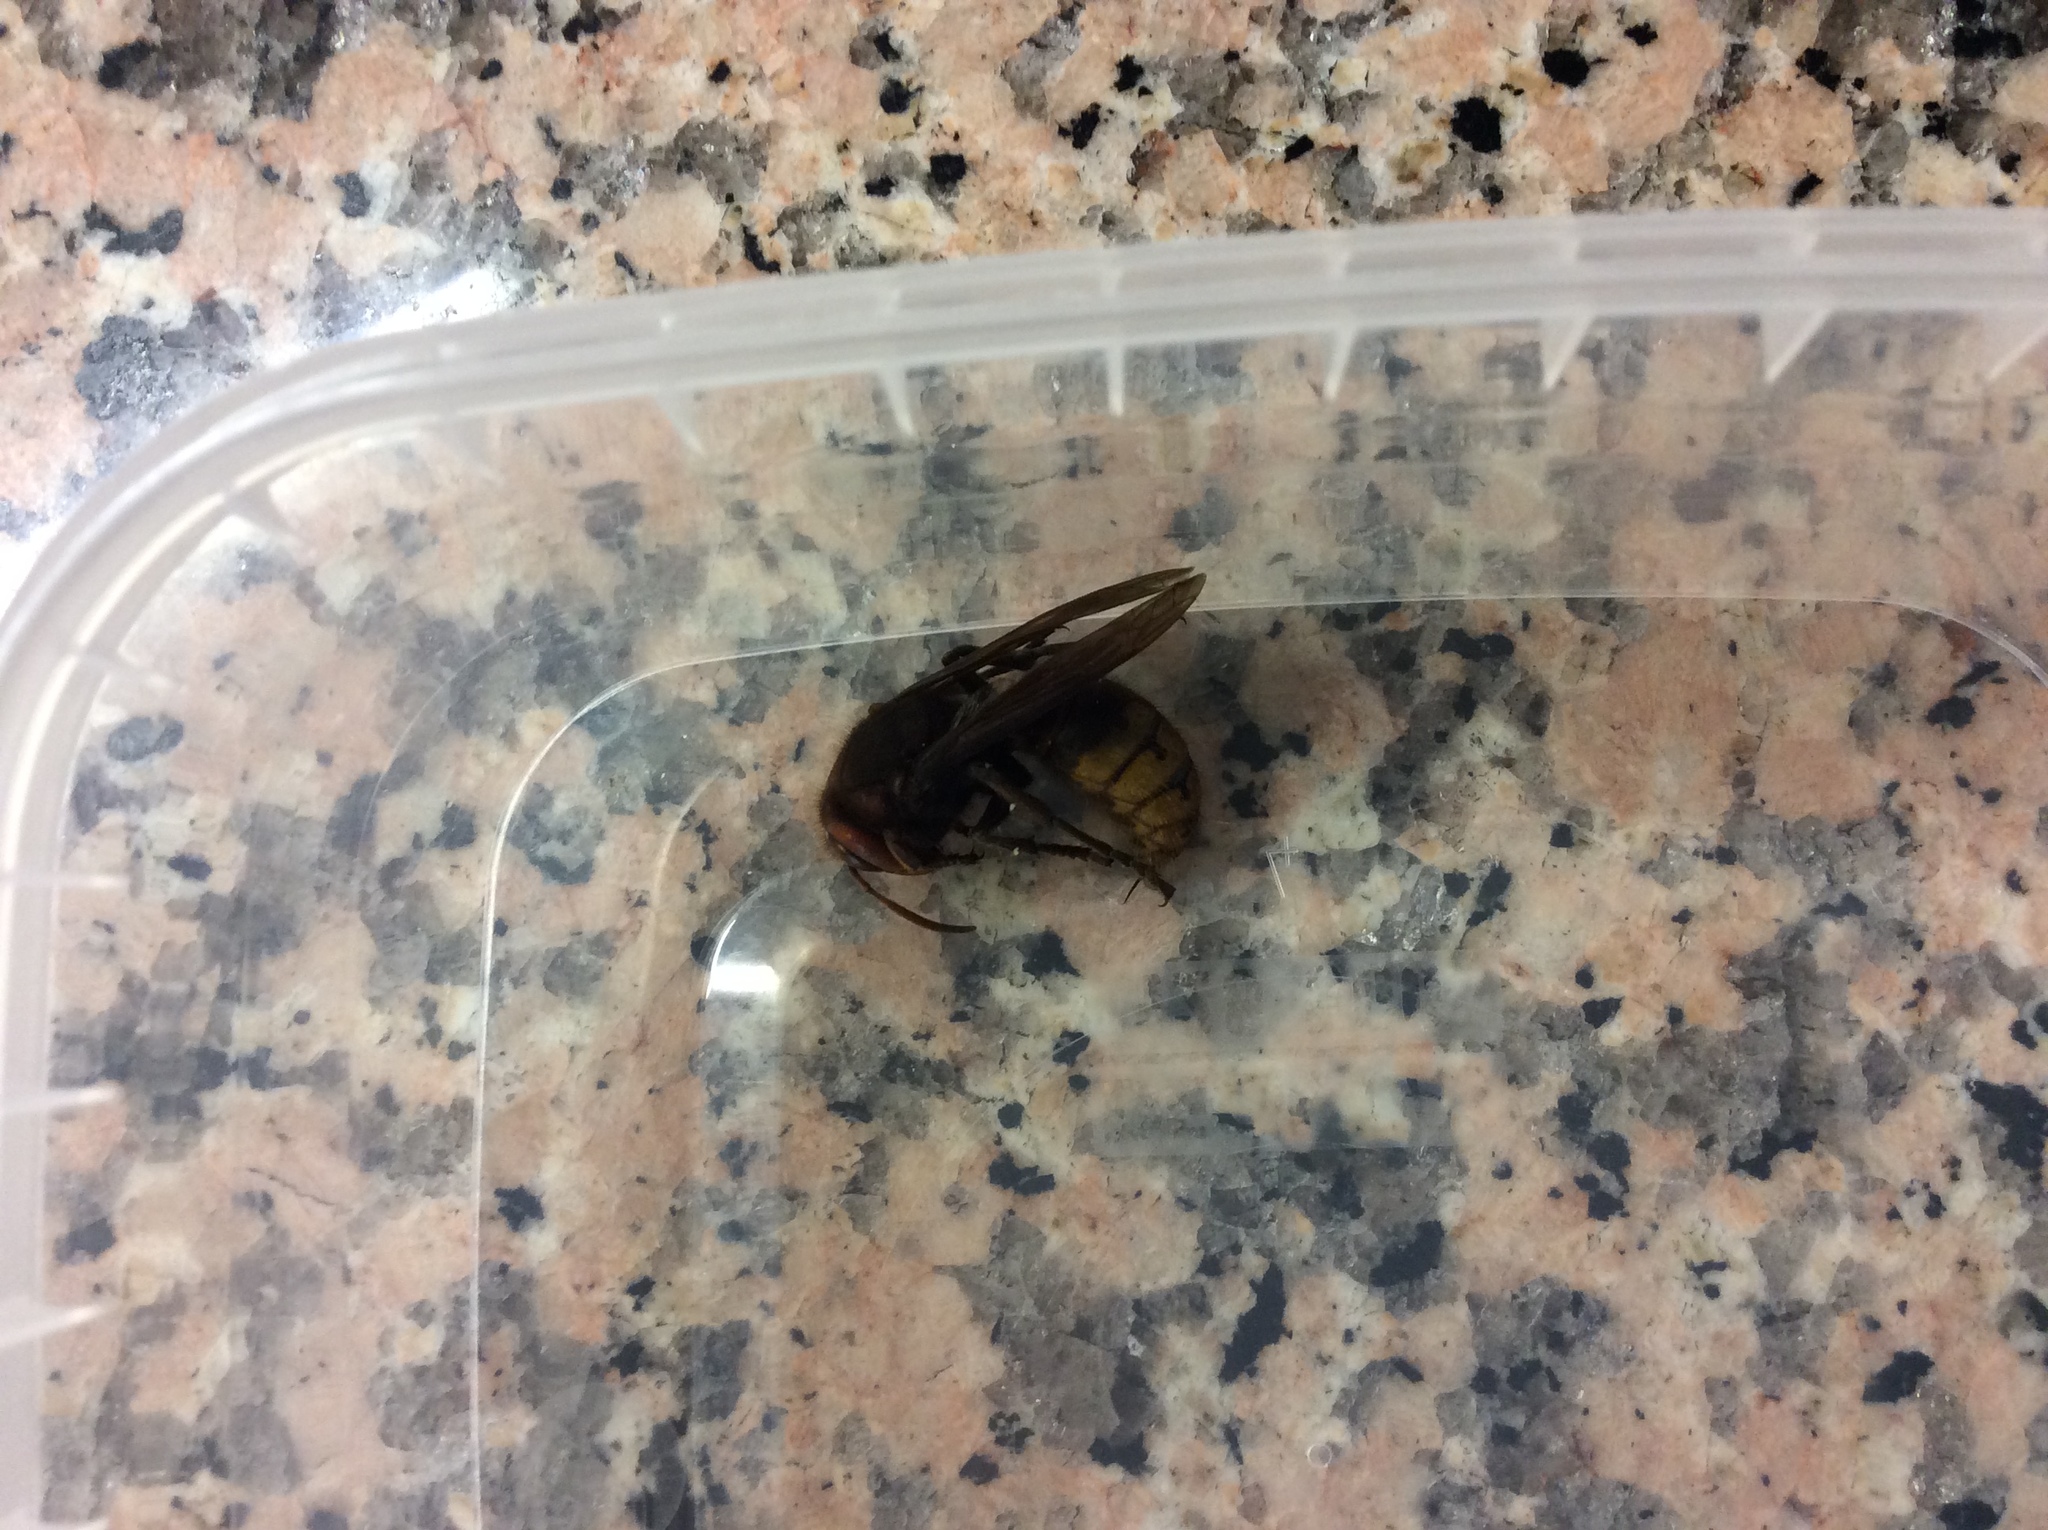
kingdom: Animalia
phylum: Arthropoda
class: Insecta
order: Hymenoptera
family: Vespidae
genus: Vespa
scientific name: Vespa crabro
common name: Hornet
